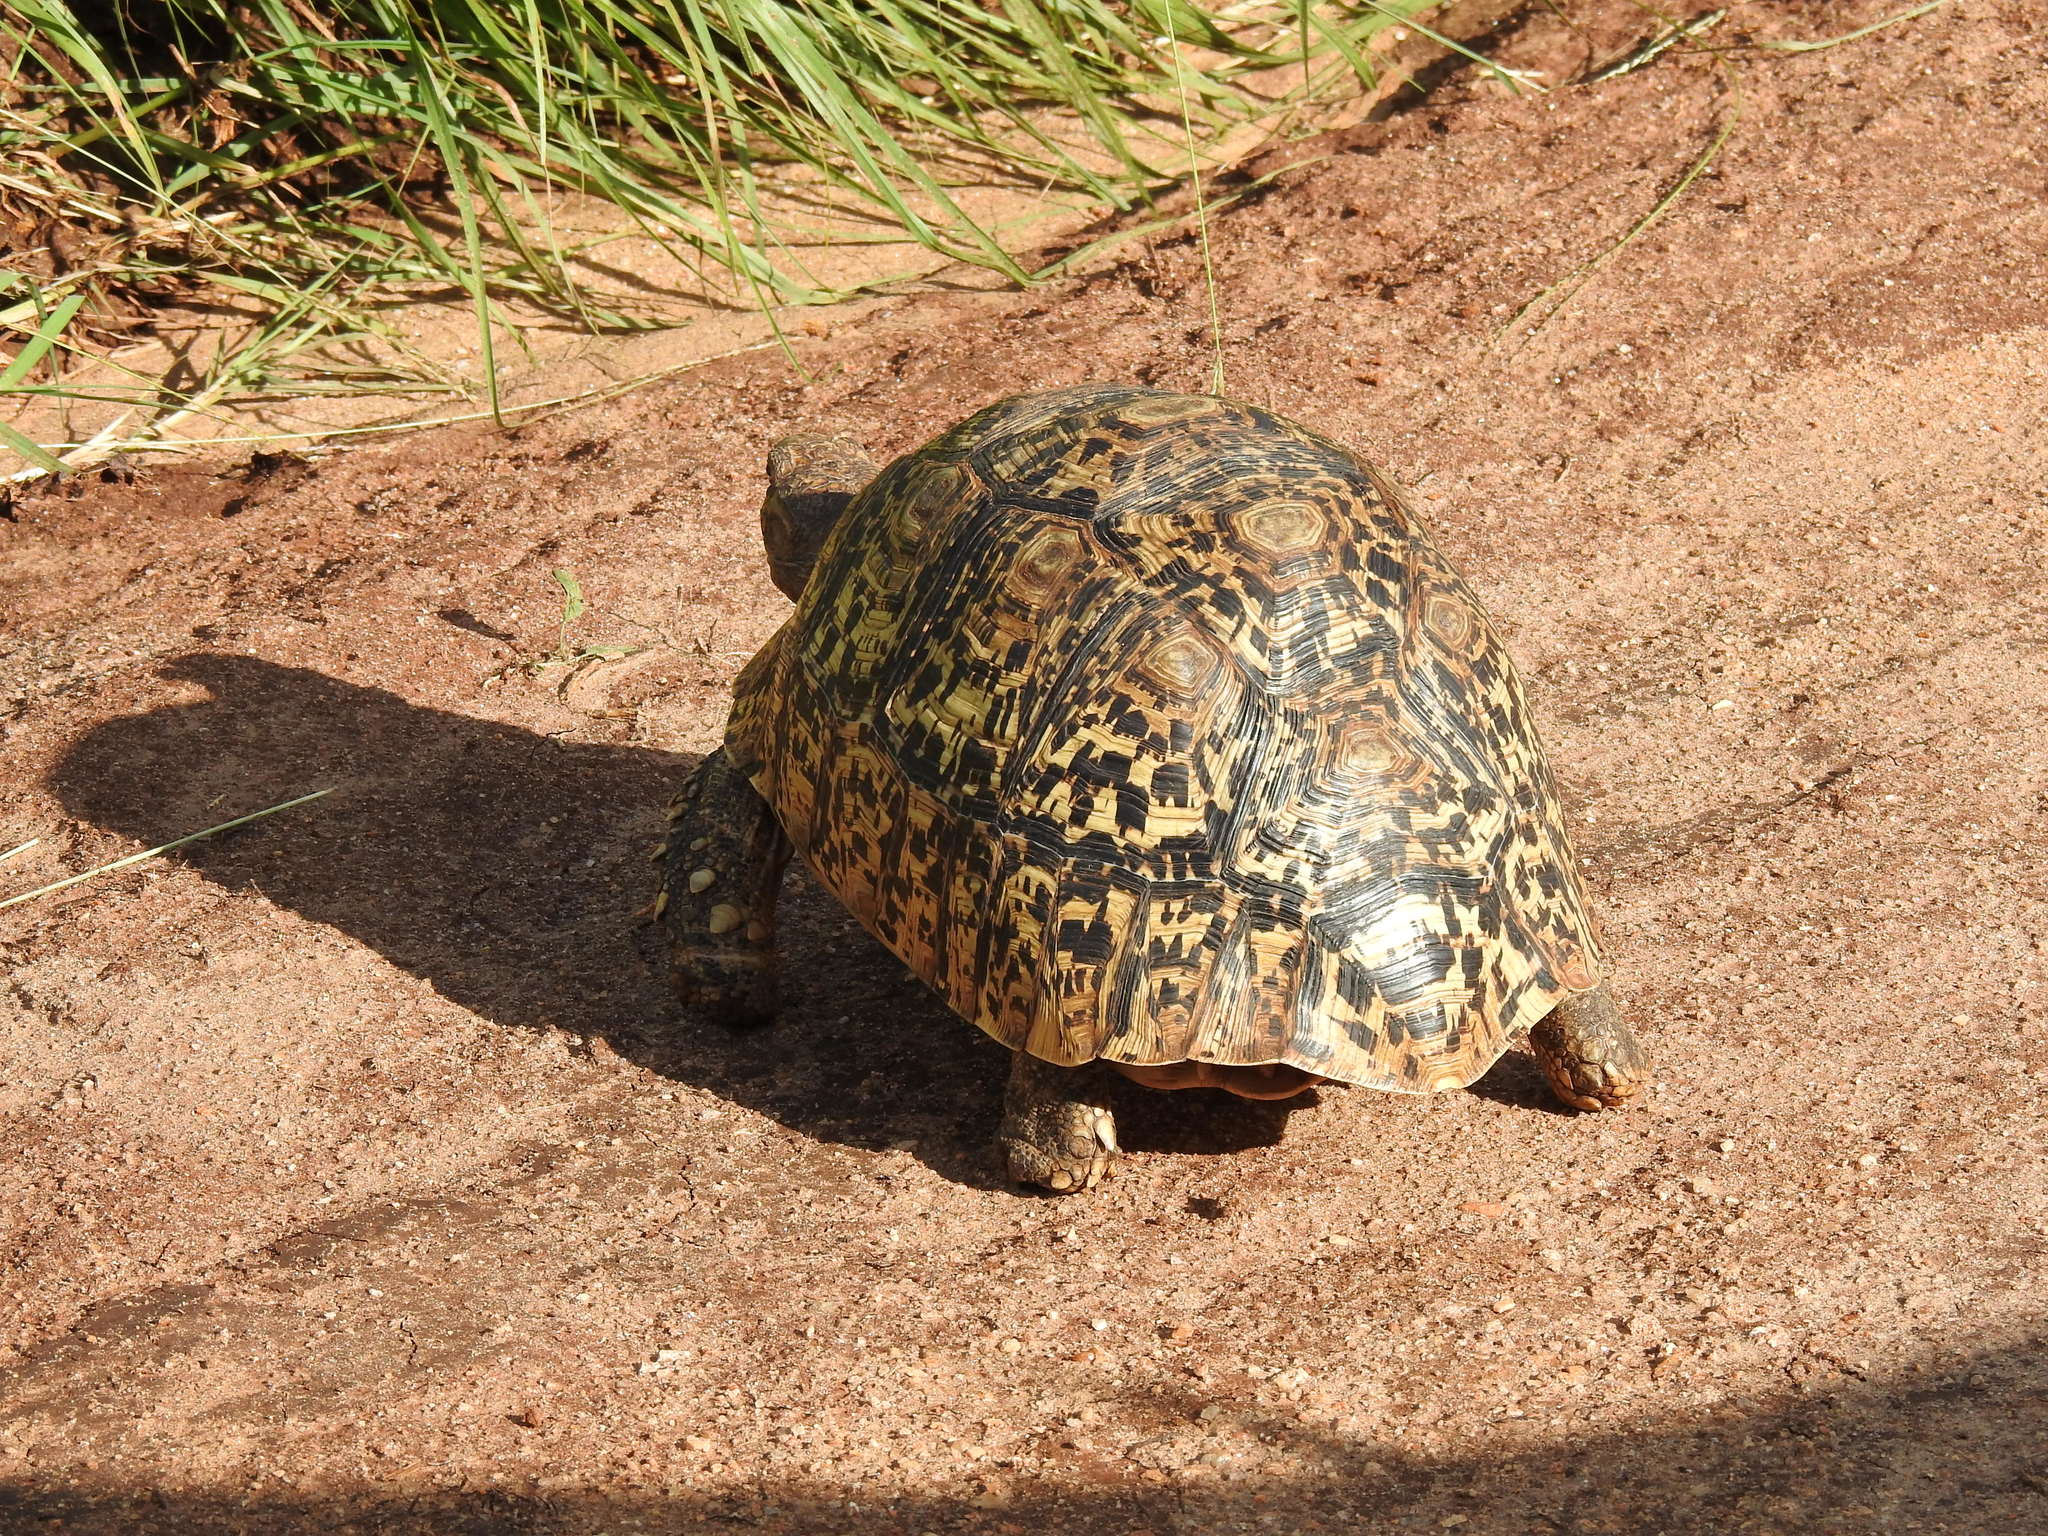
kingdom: Animalia
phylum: Chordata
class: Testudines
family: Testudinidae
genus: Stigmochelys
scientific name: Stigmochelys pardalis
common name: Leopard tortoise
